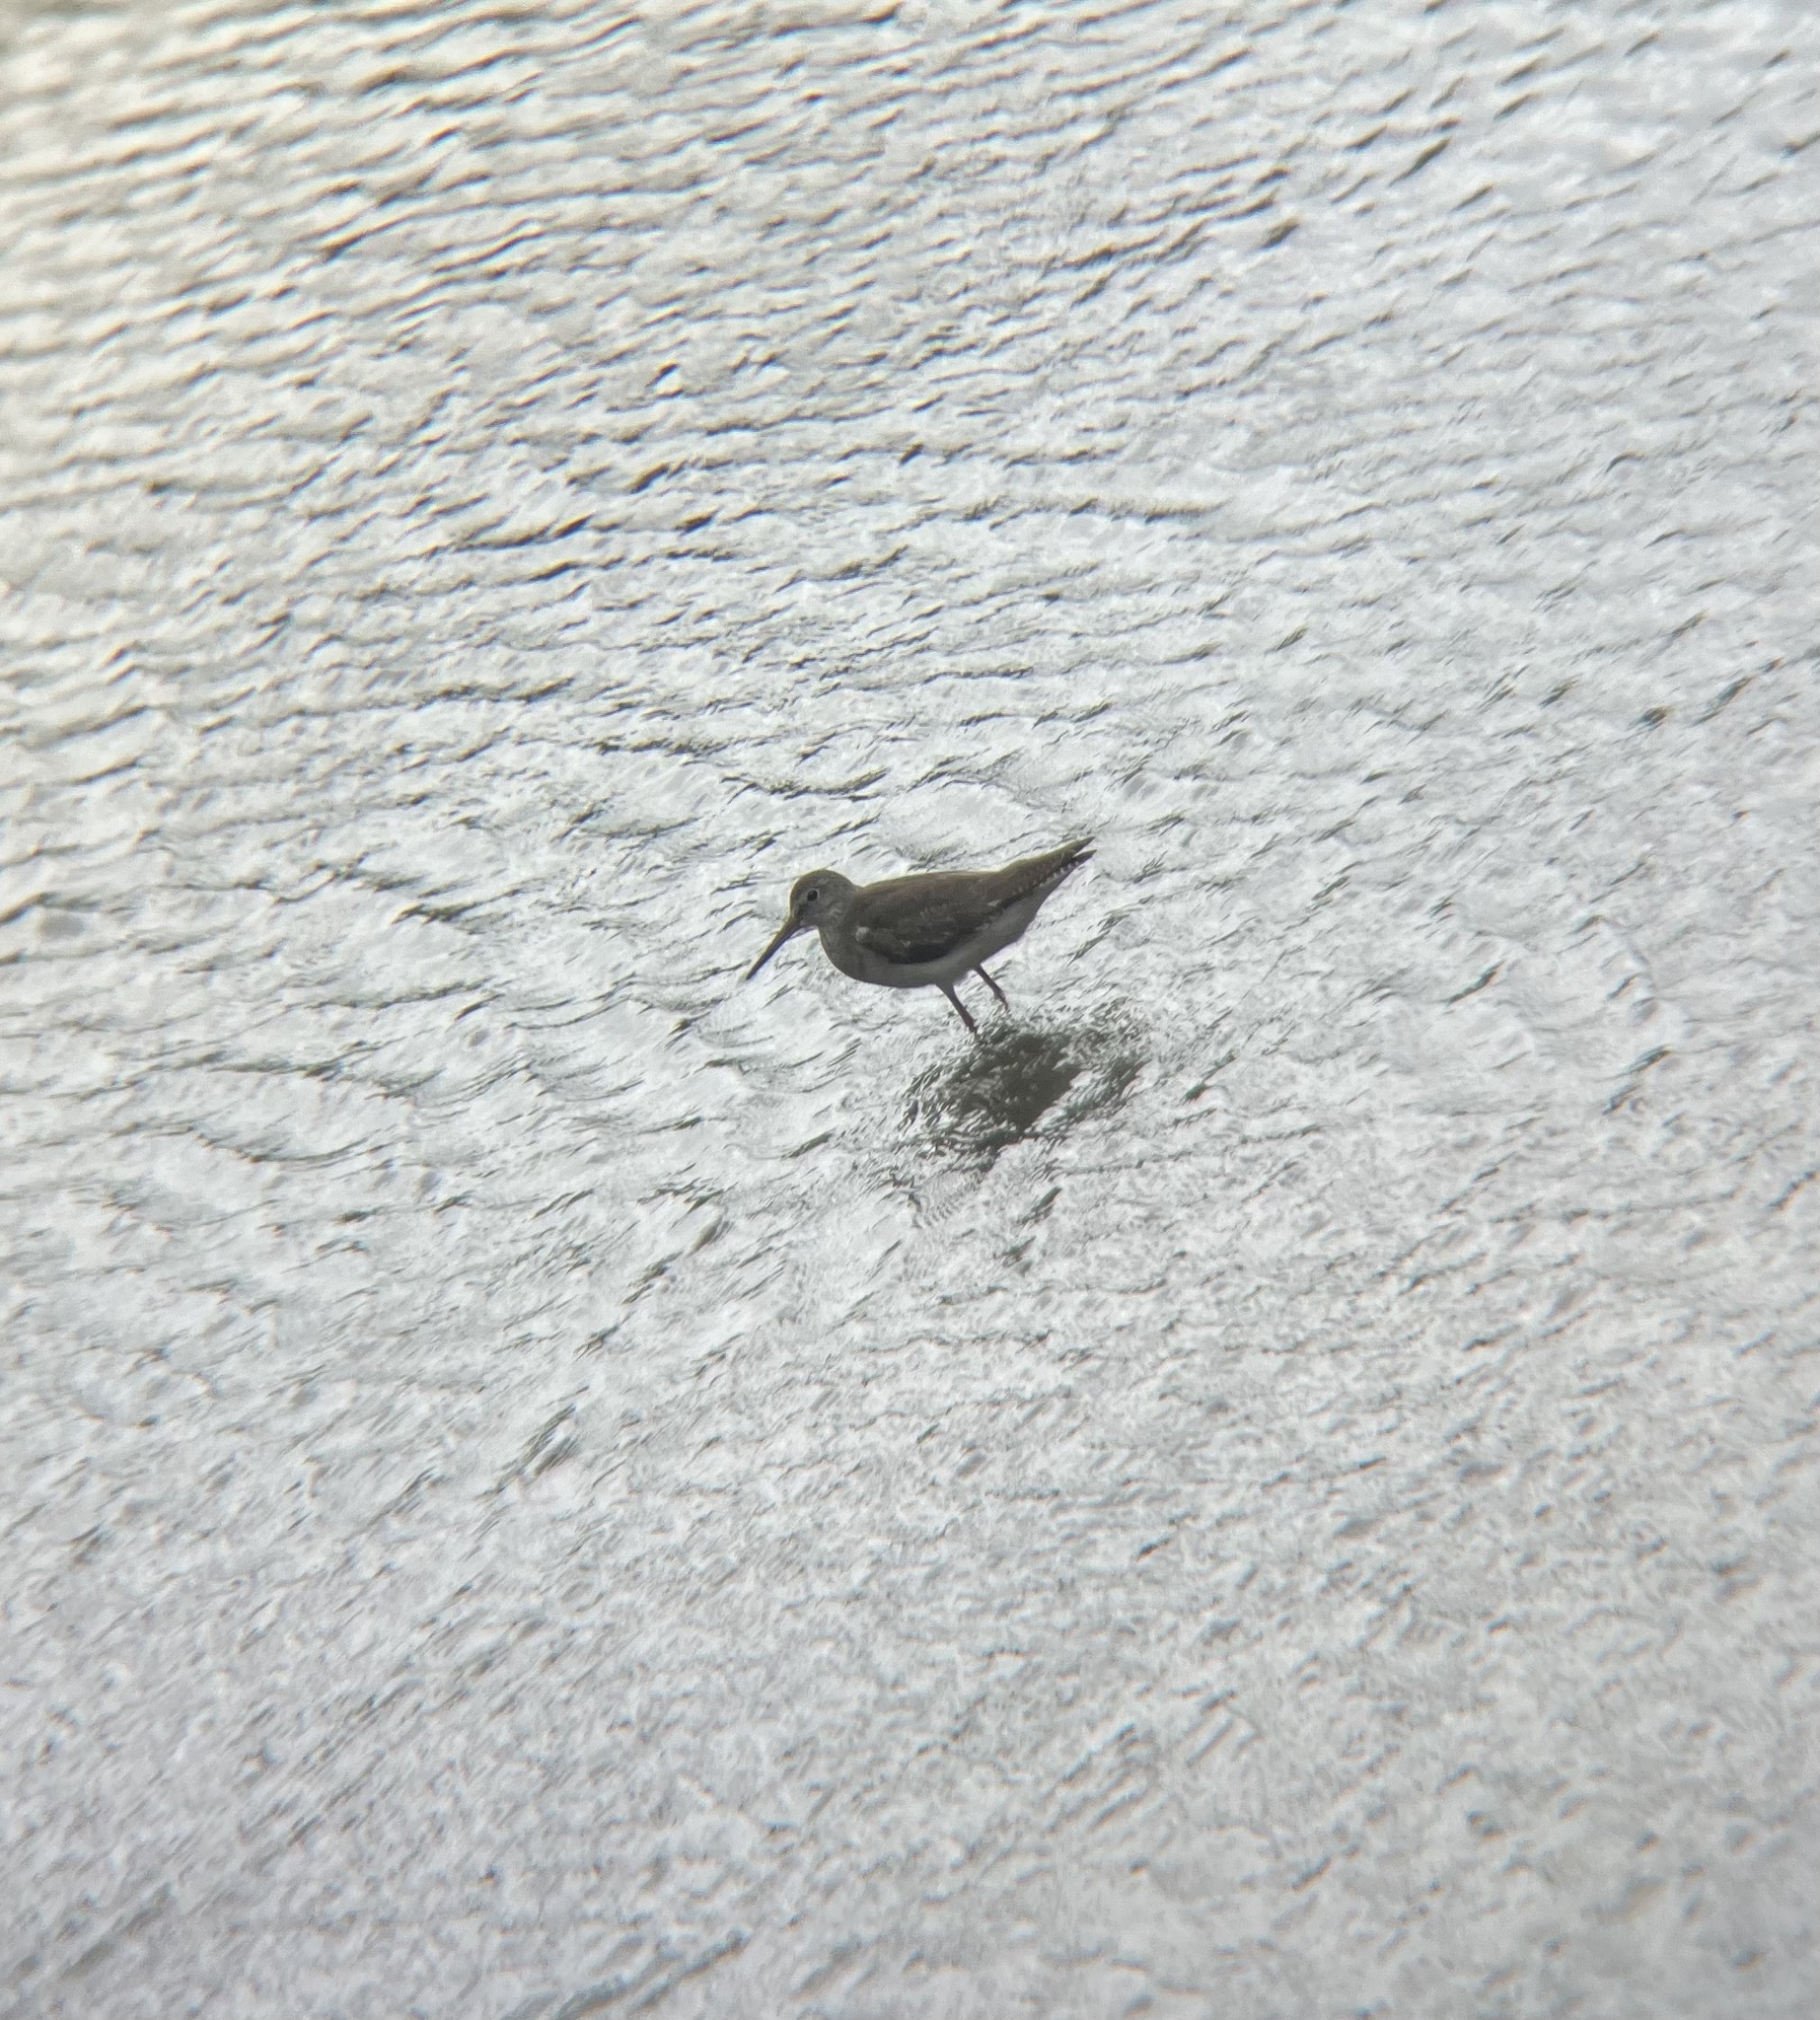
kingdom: Animalia
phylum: Chordata
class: Aves
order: Charadriiformes
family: Scolopacidae
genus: Tringa
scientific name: Tringa totanus
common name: Common redshank
